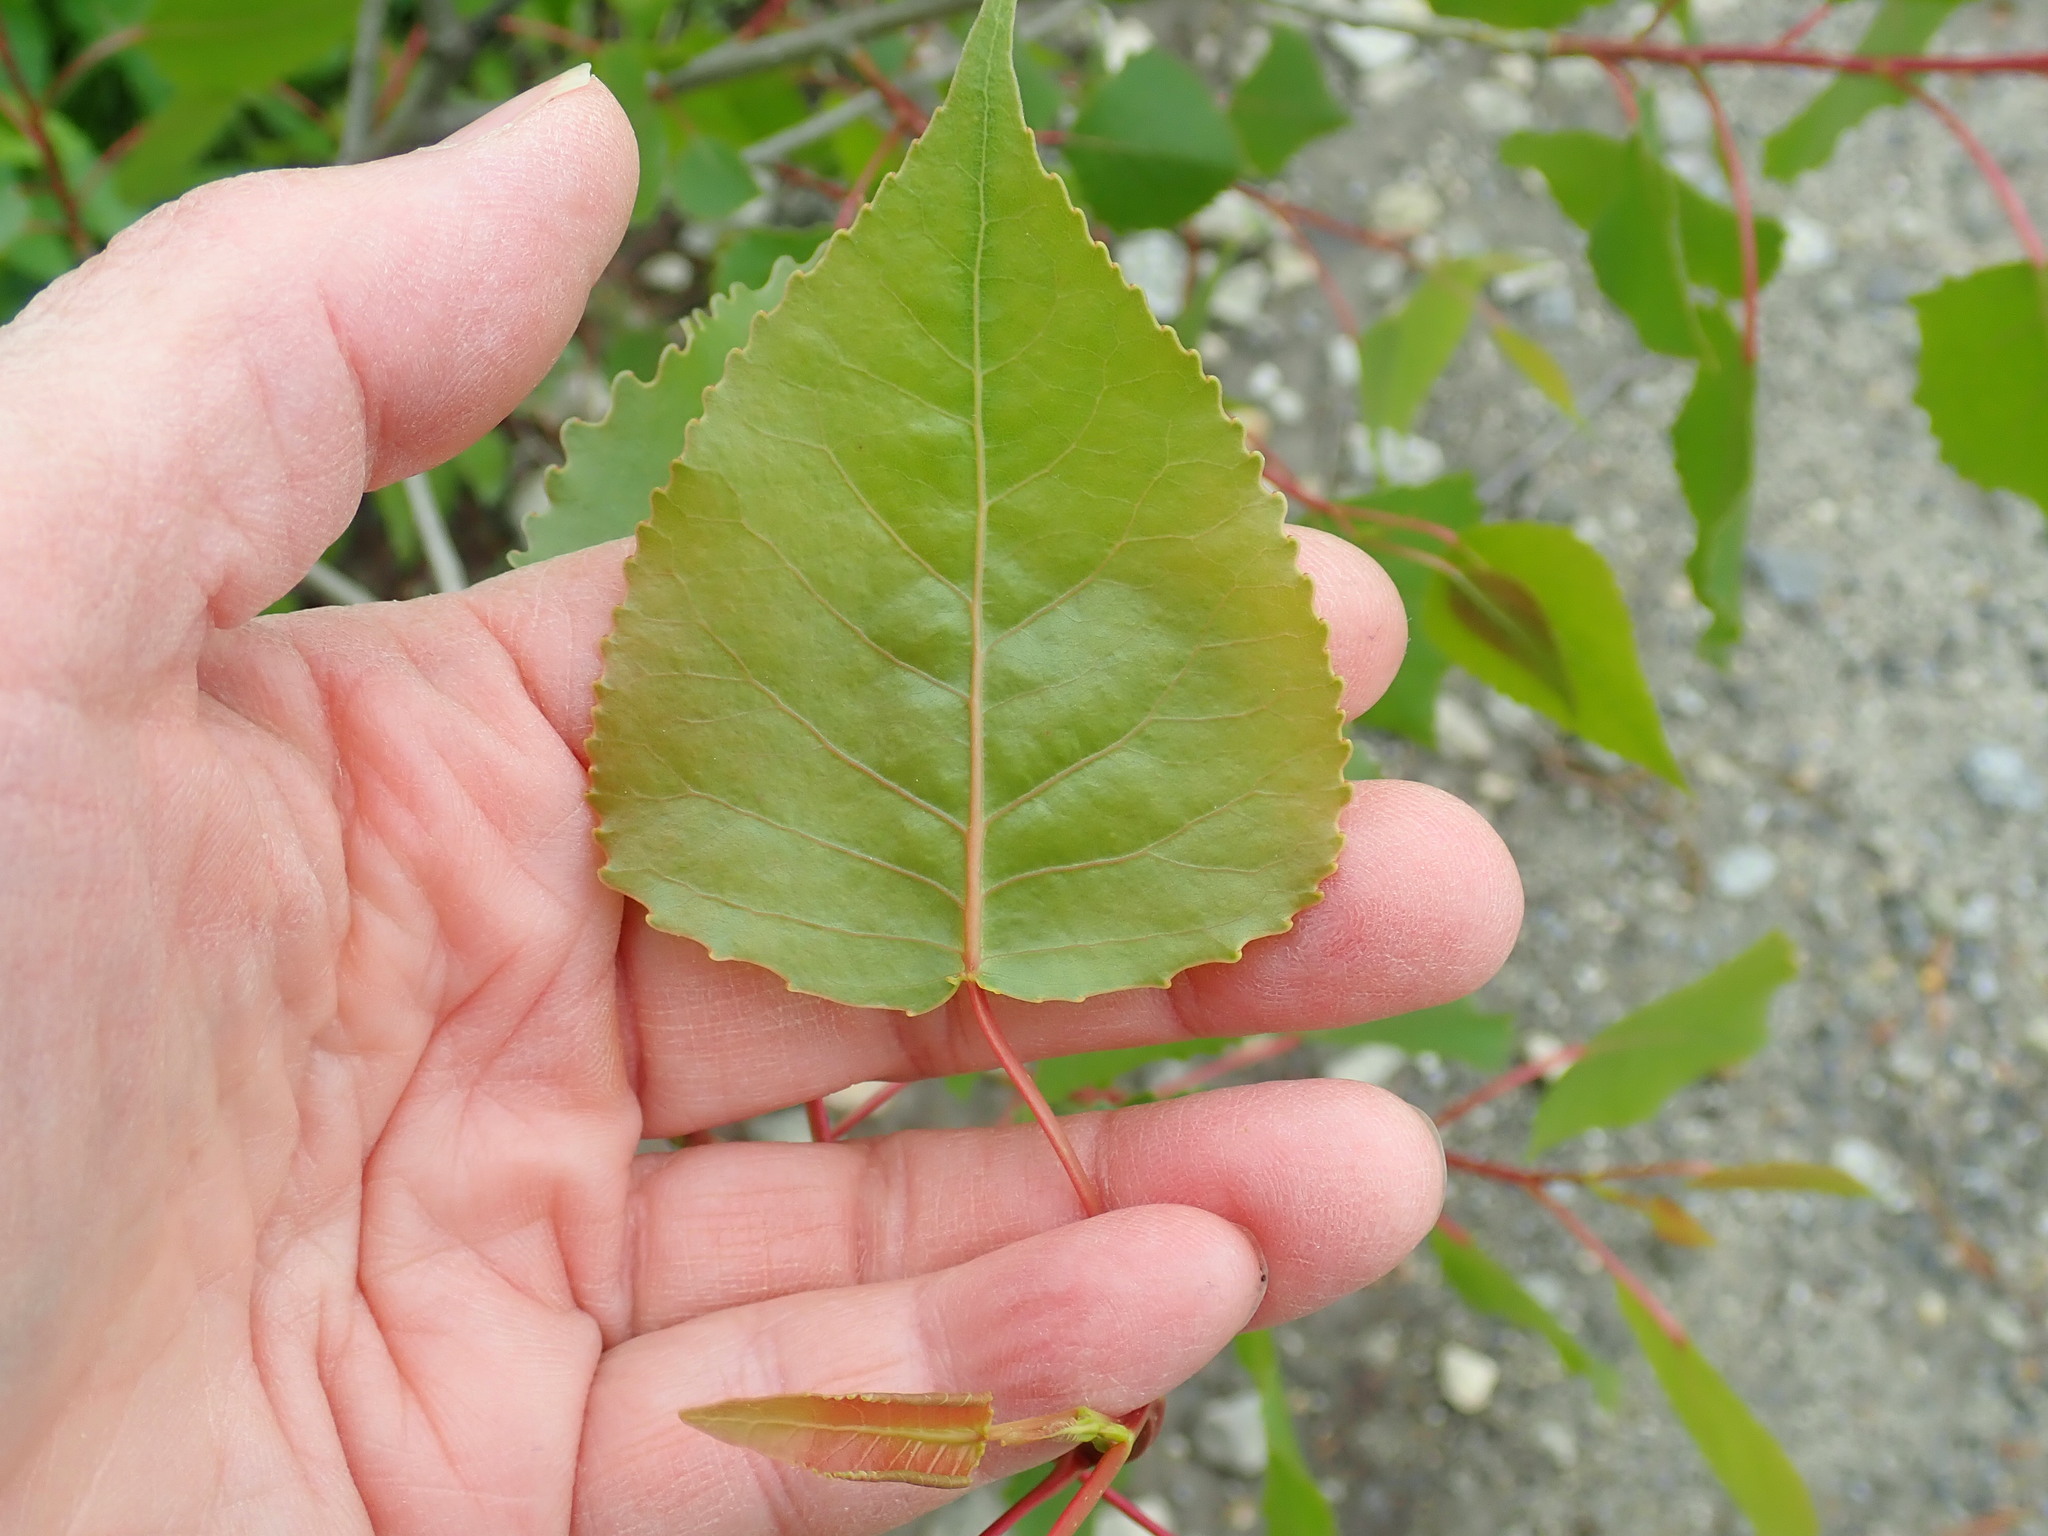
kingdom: Plantae
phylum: Tracheophyta
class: Magnoliopsida
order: Malpighiales
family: Salicaceae
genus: Populus
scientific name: Populus deltoides
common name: Eastern cottonwood
